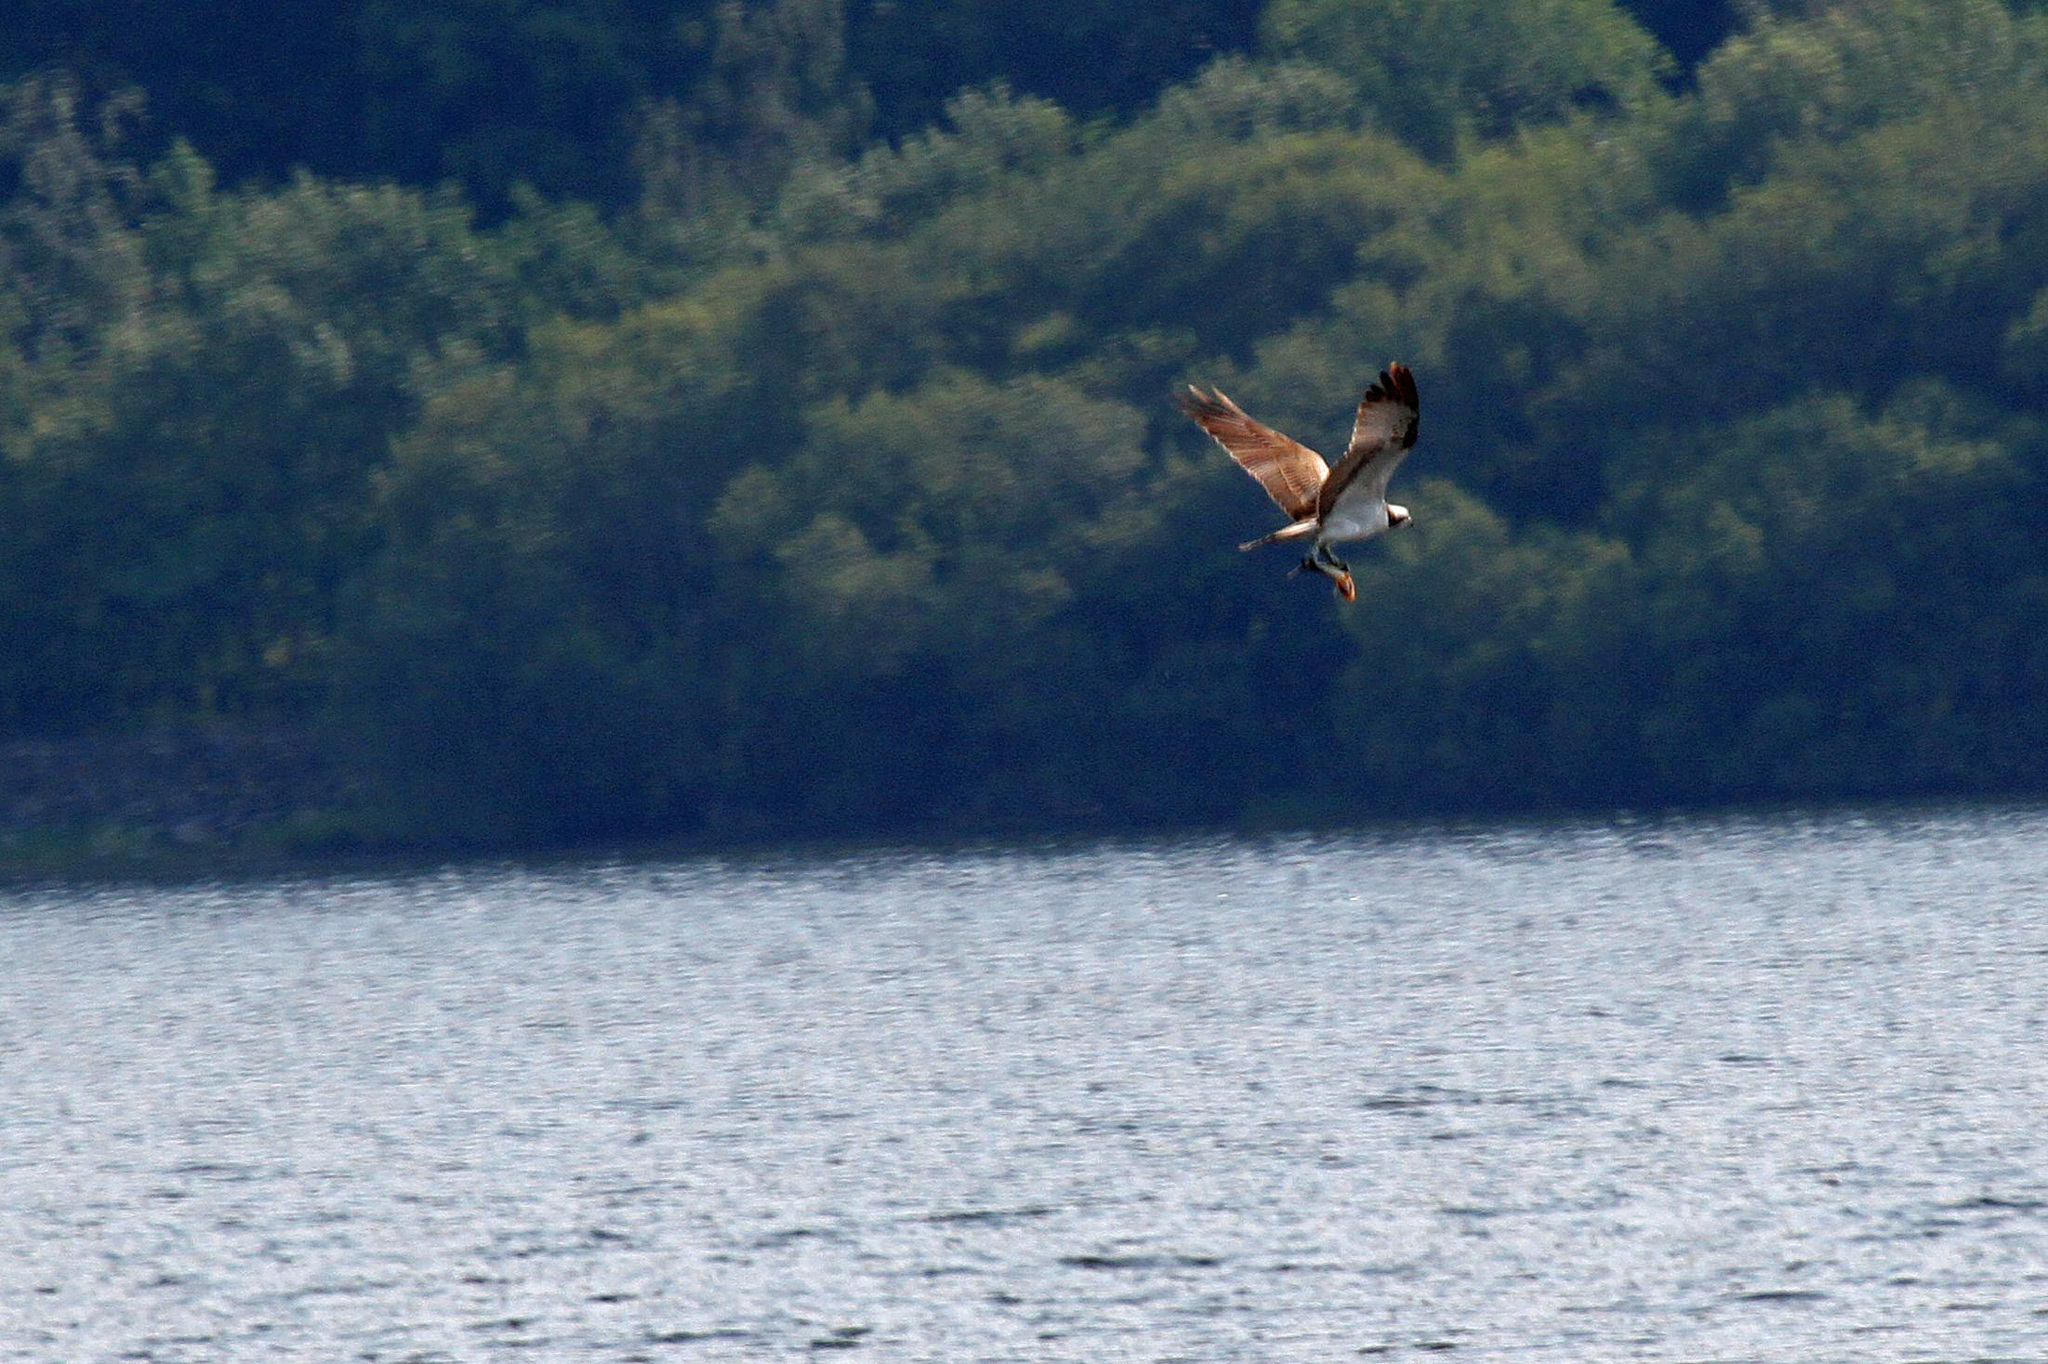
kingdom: Animalia
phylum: Chordata
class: Aves
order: Accipitriformes
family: Pandionidae
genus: Pandion
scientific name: Pandion haliaetus
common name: Osprey
